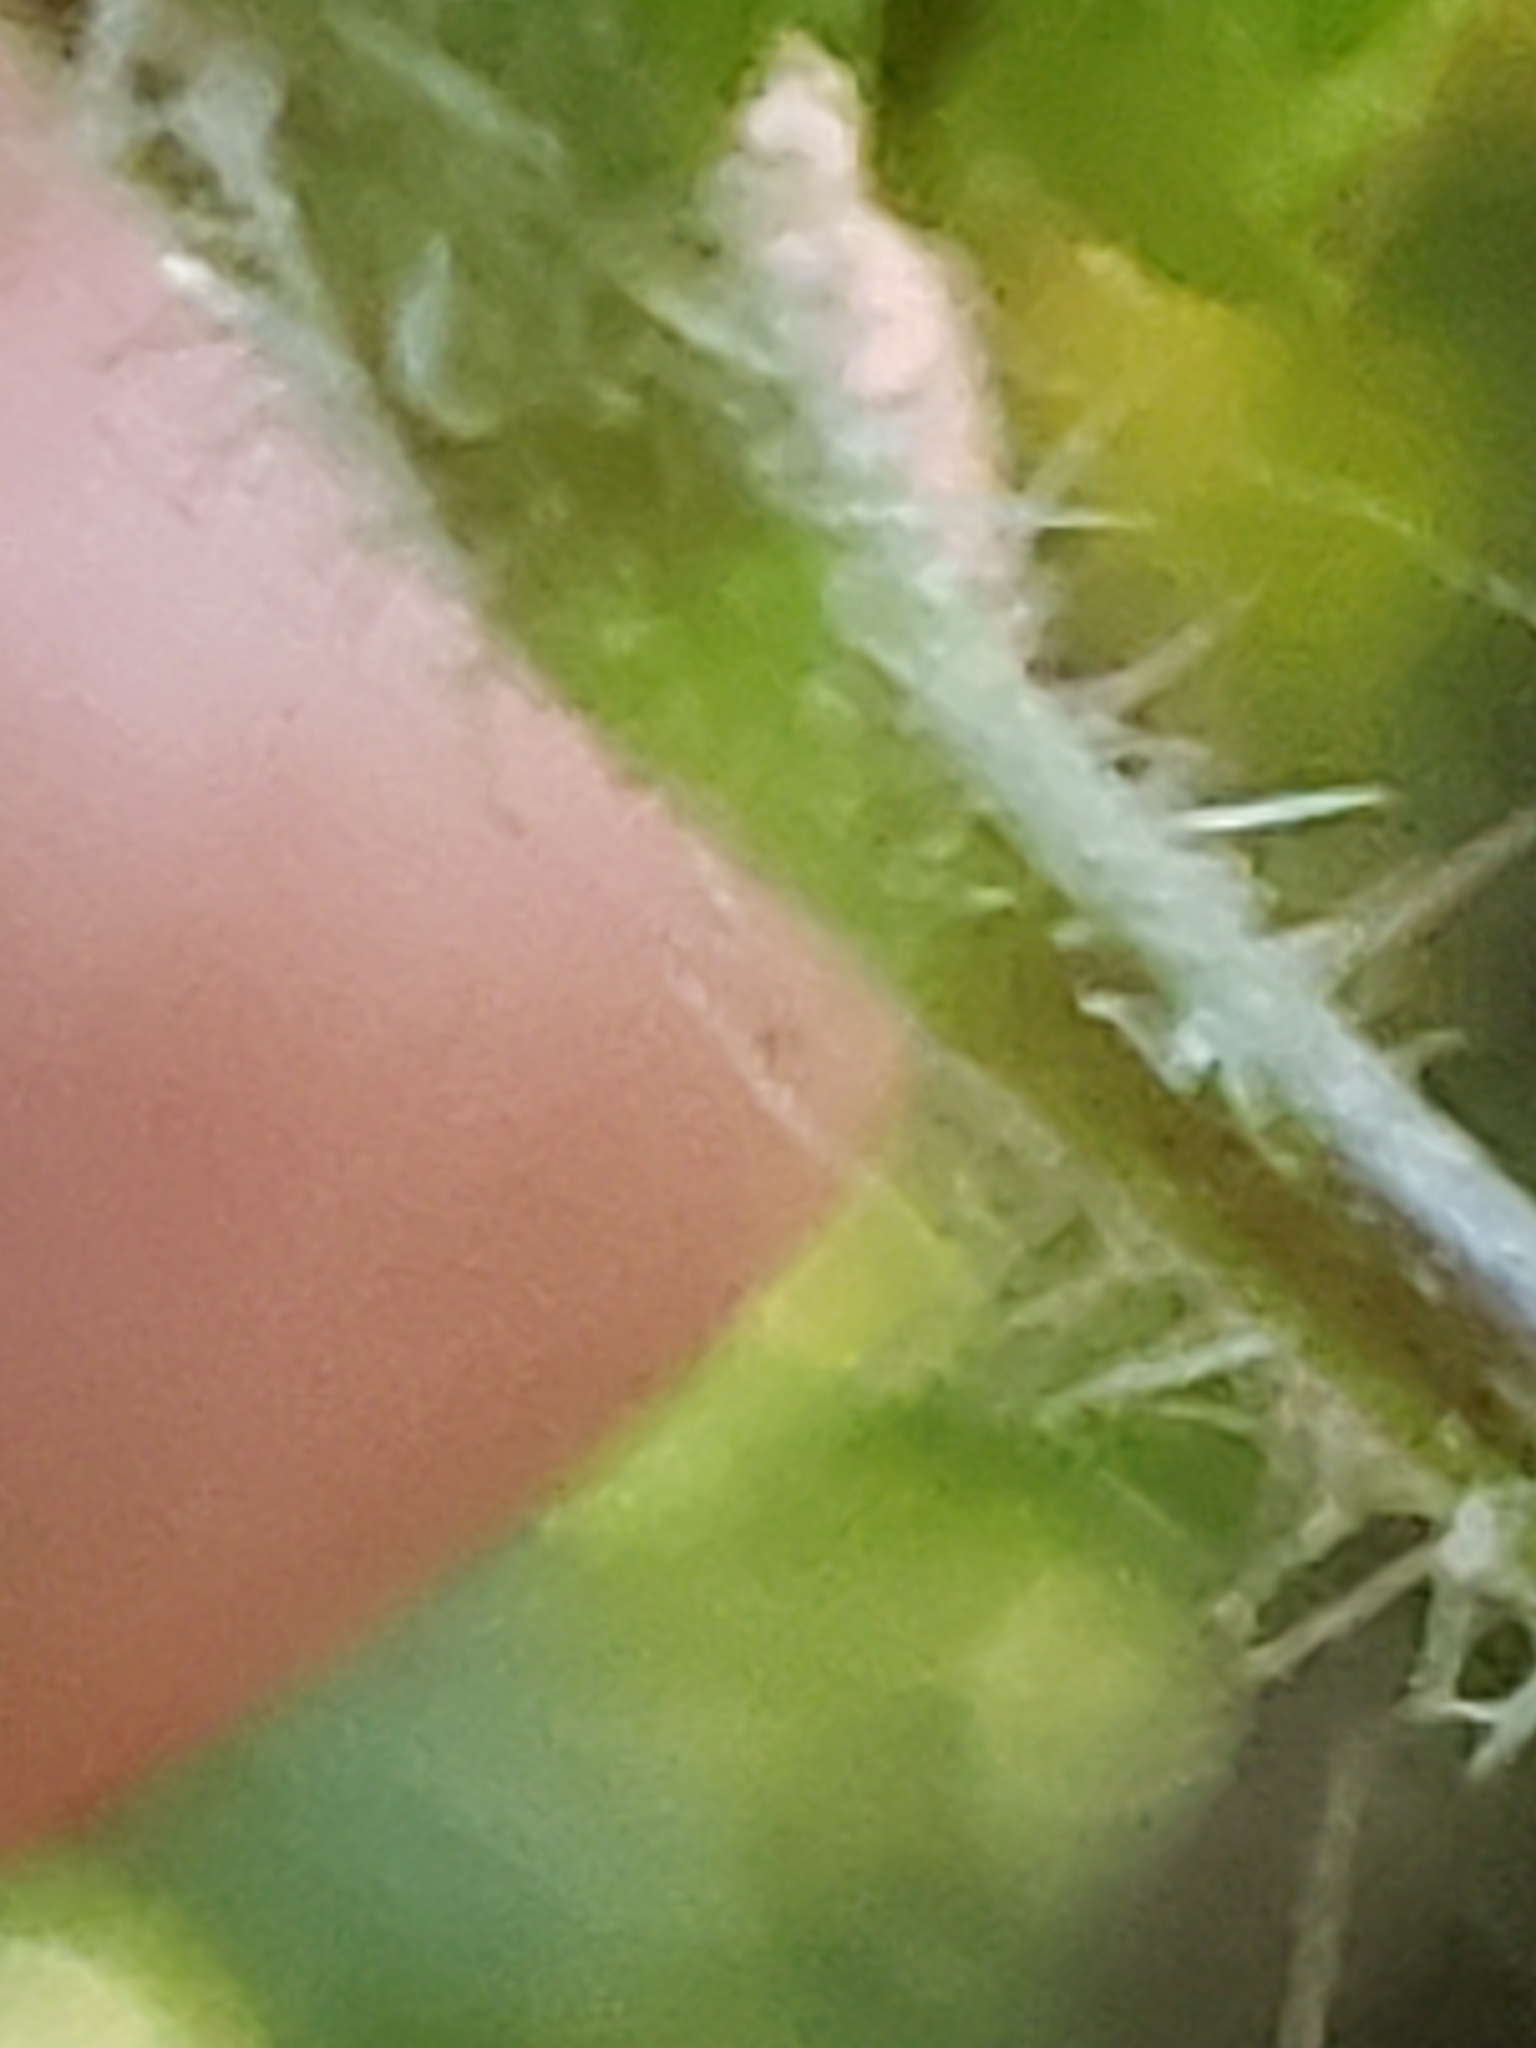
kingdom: Plantae
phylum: Tracheophyta
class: Magnoliopsida
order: Rosales
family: Urticaceae
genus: Laportea
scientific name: Laportea canadensis
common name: Canada nettle
